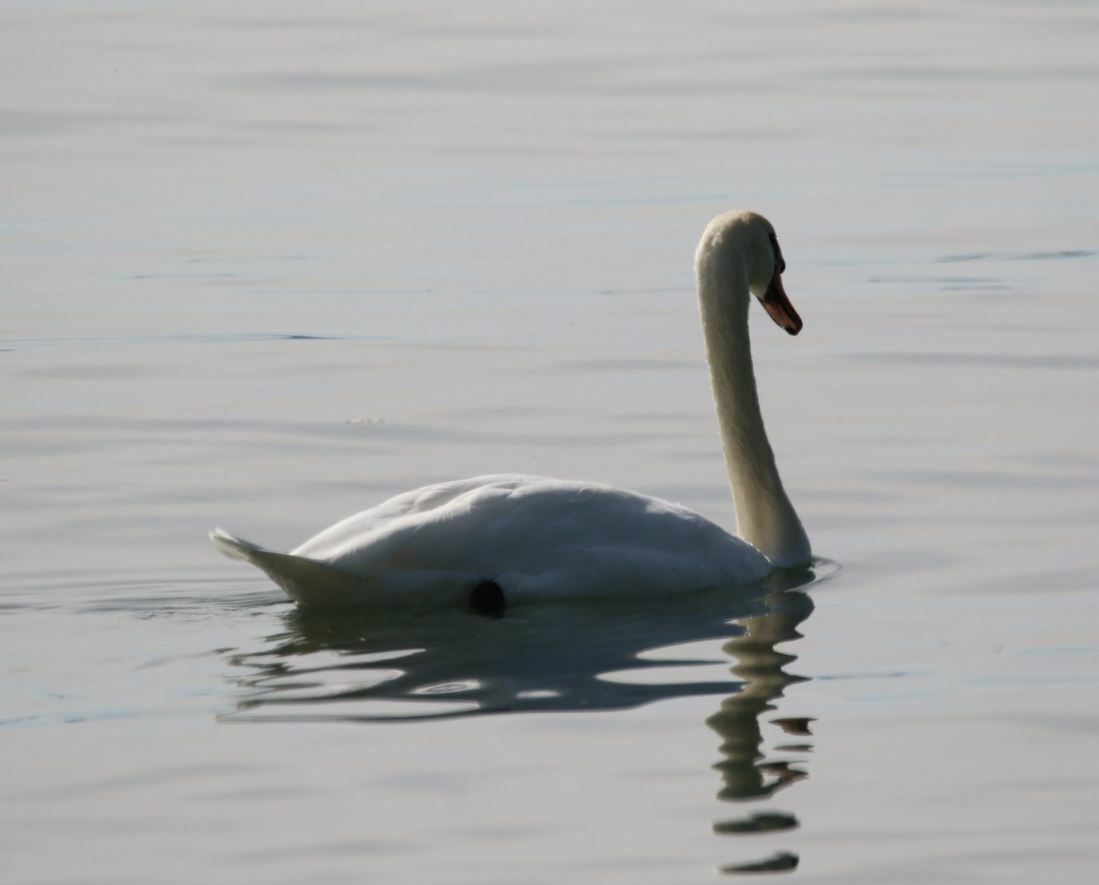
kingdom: Animalia
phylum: Chordata
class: Aves
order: Anseriformes
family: Anatidae
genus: Cygnus
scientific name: Cygnus olor
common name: Mute swan
